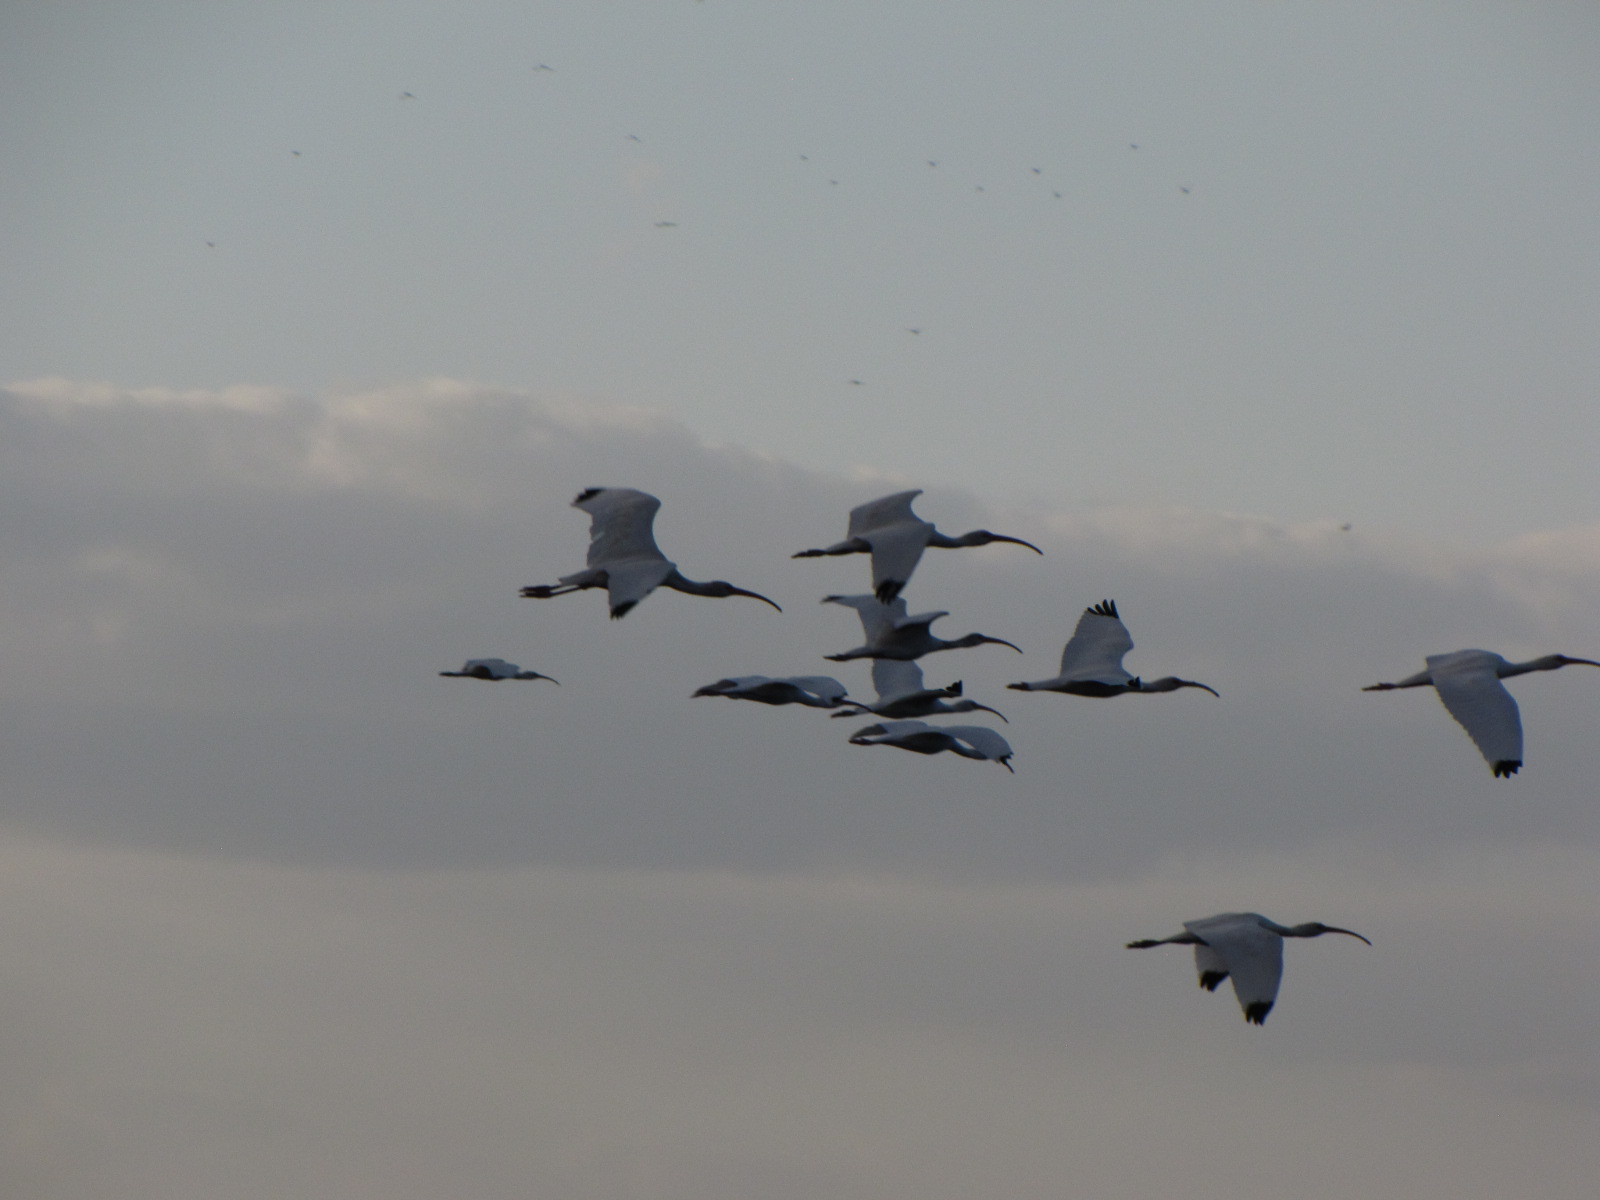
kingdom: Animalia
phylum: Chordata
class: Aves
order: Pelecaniformes
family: Threskiornithidae
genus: Eudocimus
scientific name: Eudocimus albus
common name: White ibis
